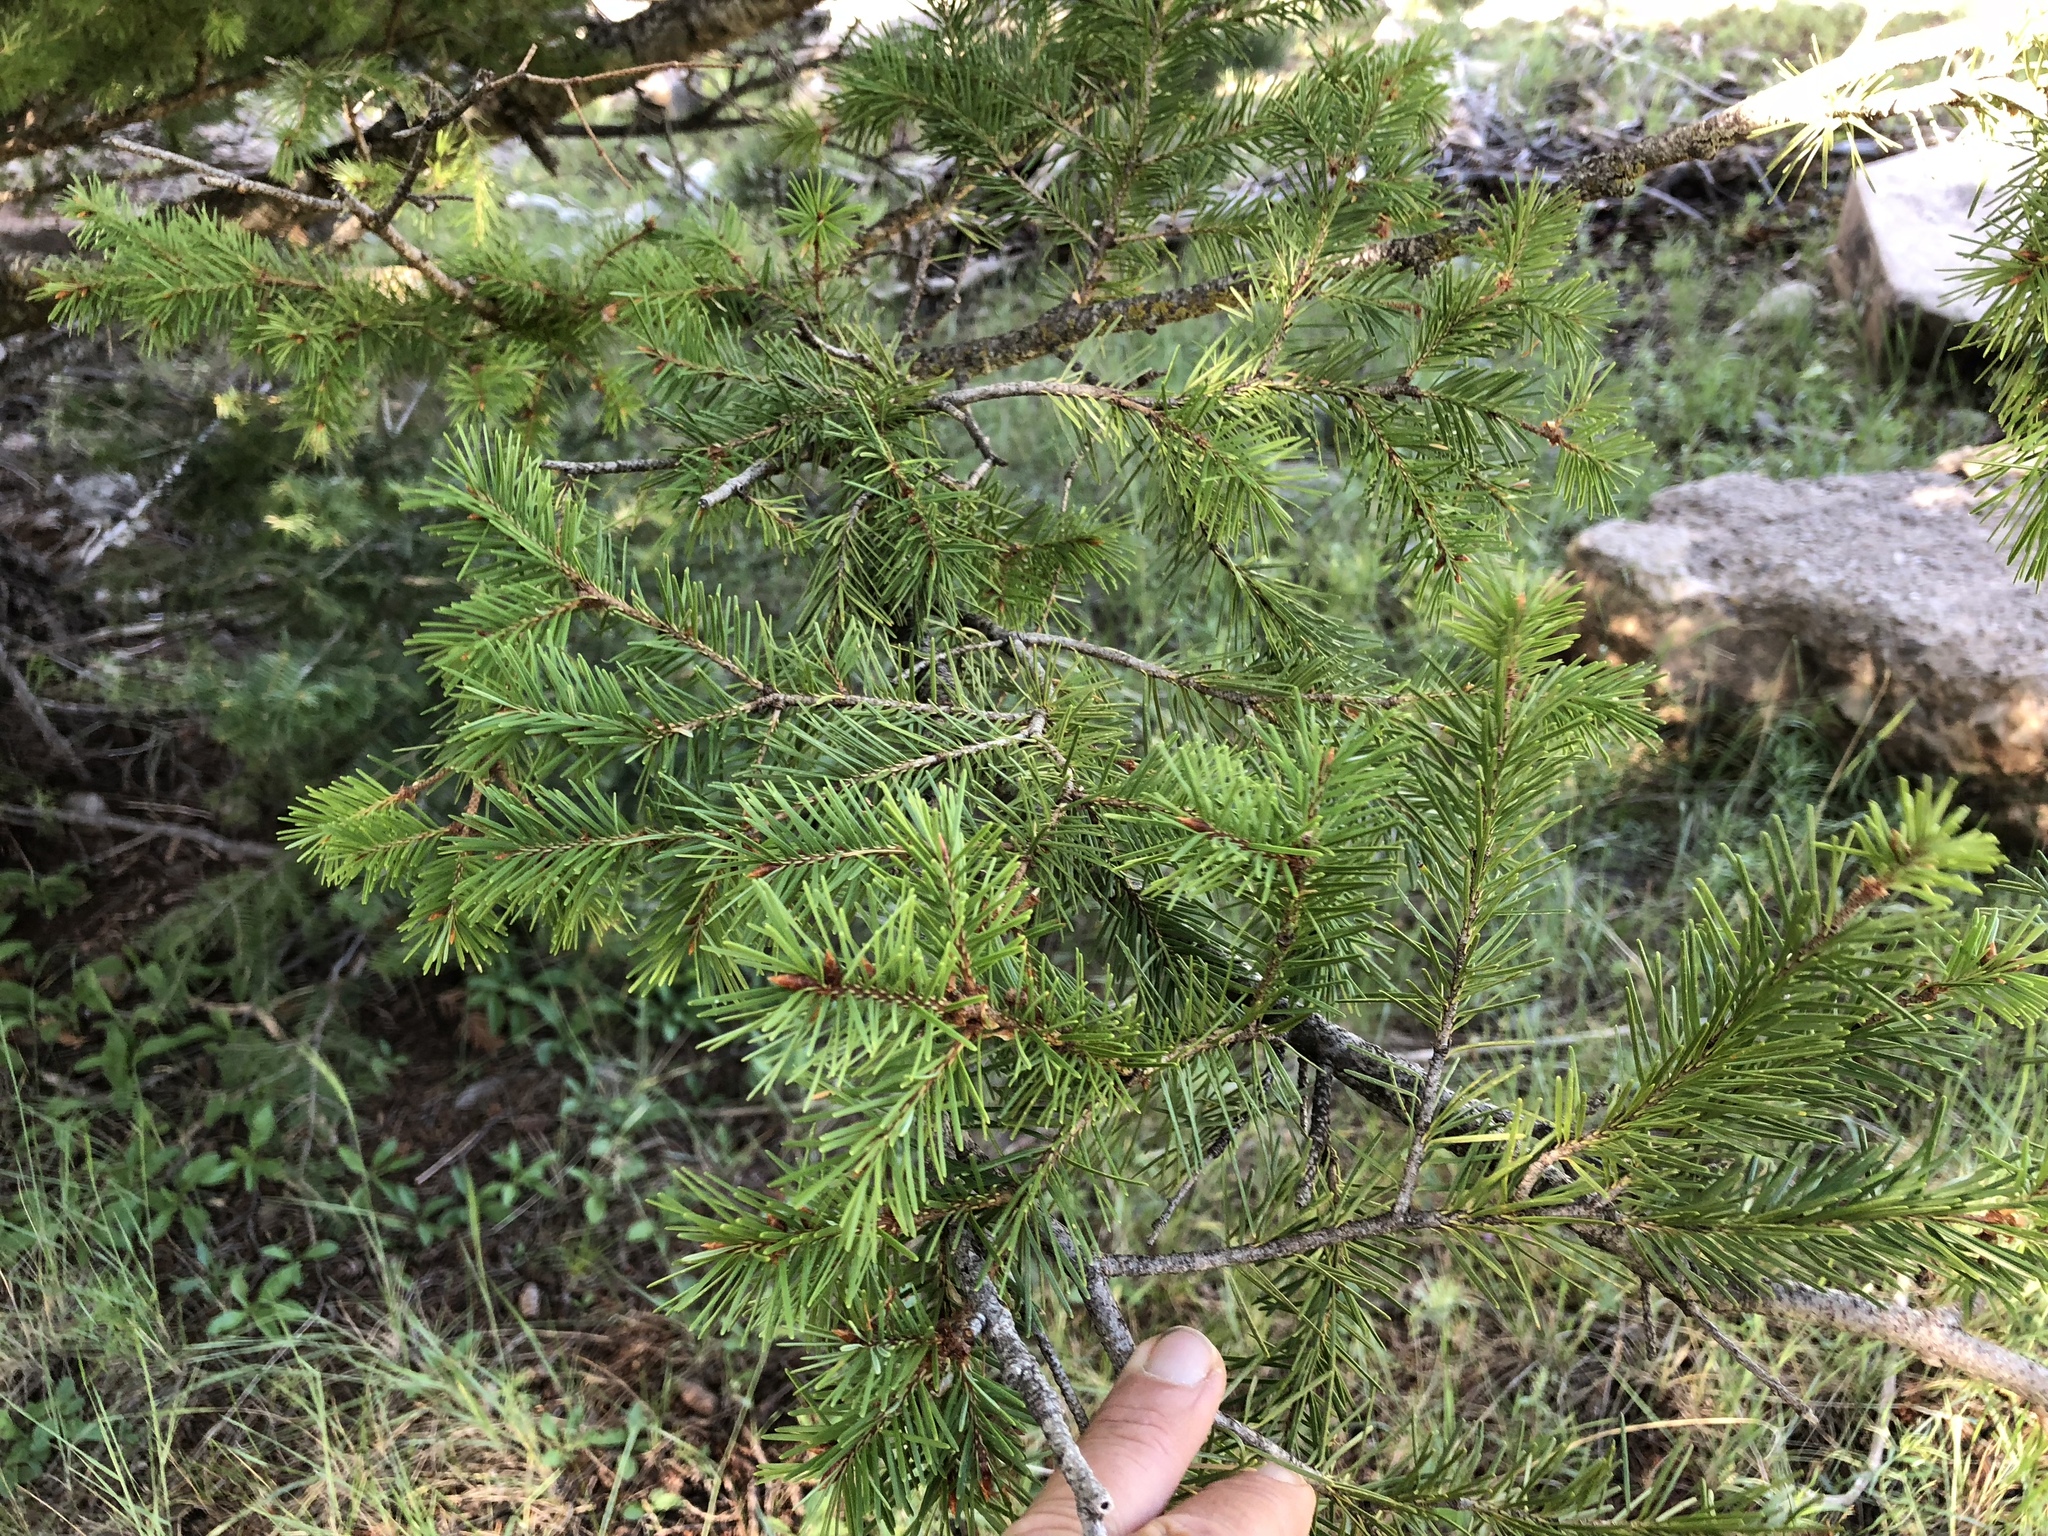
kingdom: Plantae
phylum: Tracheophyta
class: Pinopsida
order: Pinales
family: Pinaceae
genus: Pseudotsuga
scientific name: Pseudotsuga menziesii
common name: Douglas fir
